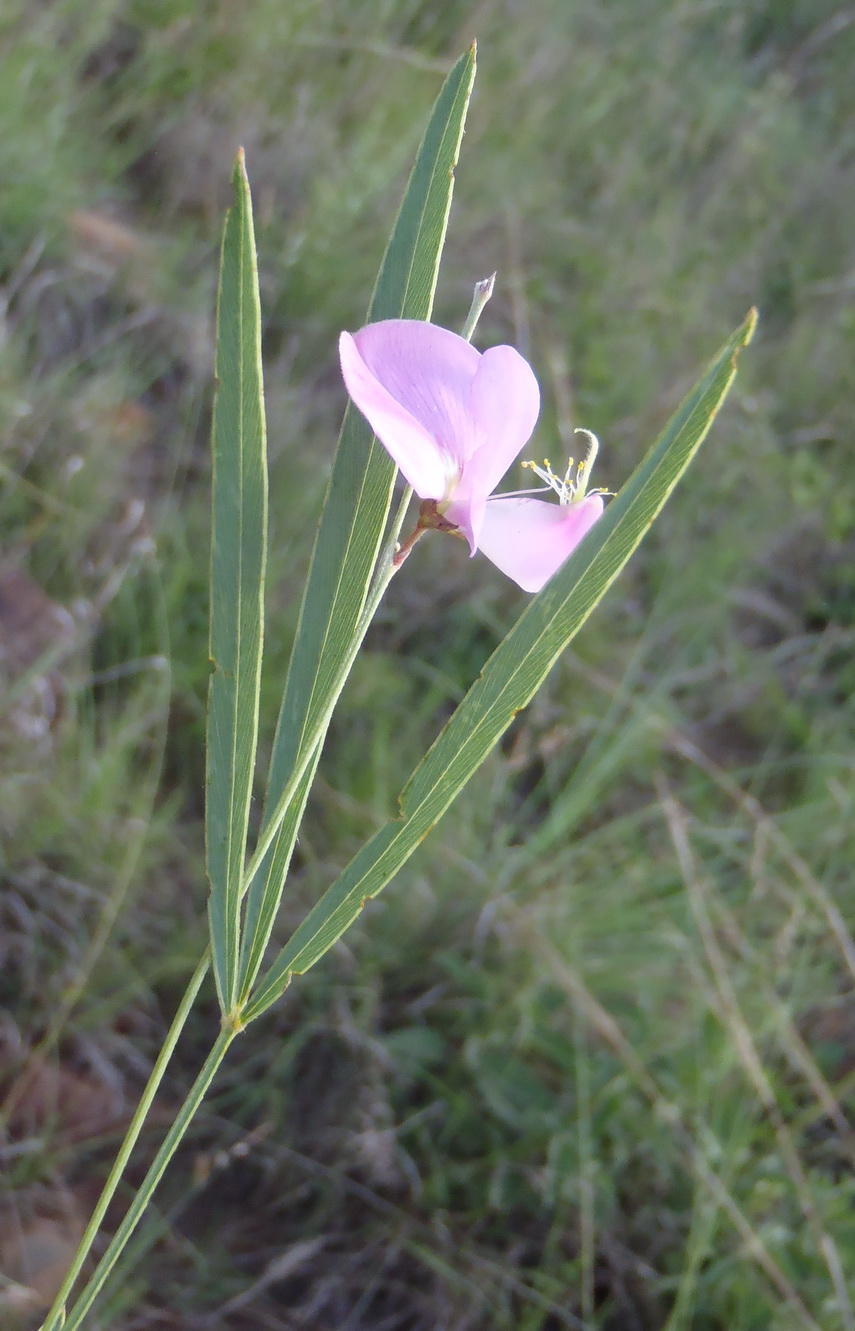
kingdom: Plantae
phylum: Tracheophyta
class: Magnoliopsida
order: Fabales
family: Fabaceae
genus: Tephrosia
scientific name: Tephrosia longipes
